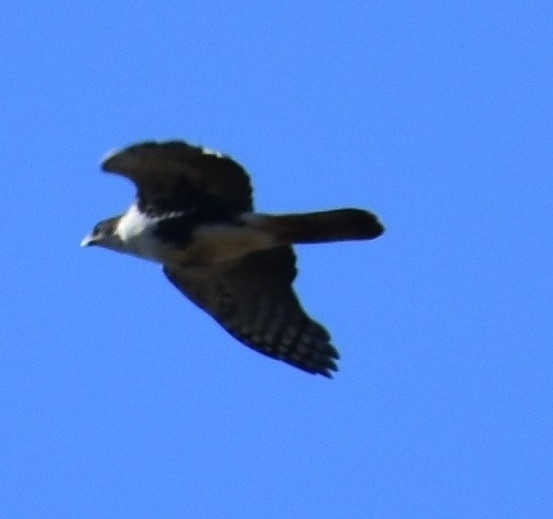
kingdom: Animalia
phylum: Chordata
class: Aves
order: Accipitriformes
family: Accipitridae
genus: Accipiter
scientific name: Accipiter melanoleucus
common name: Black sparrowhawk
